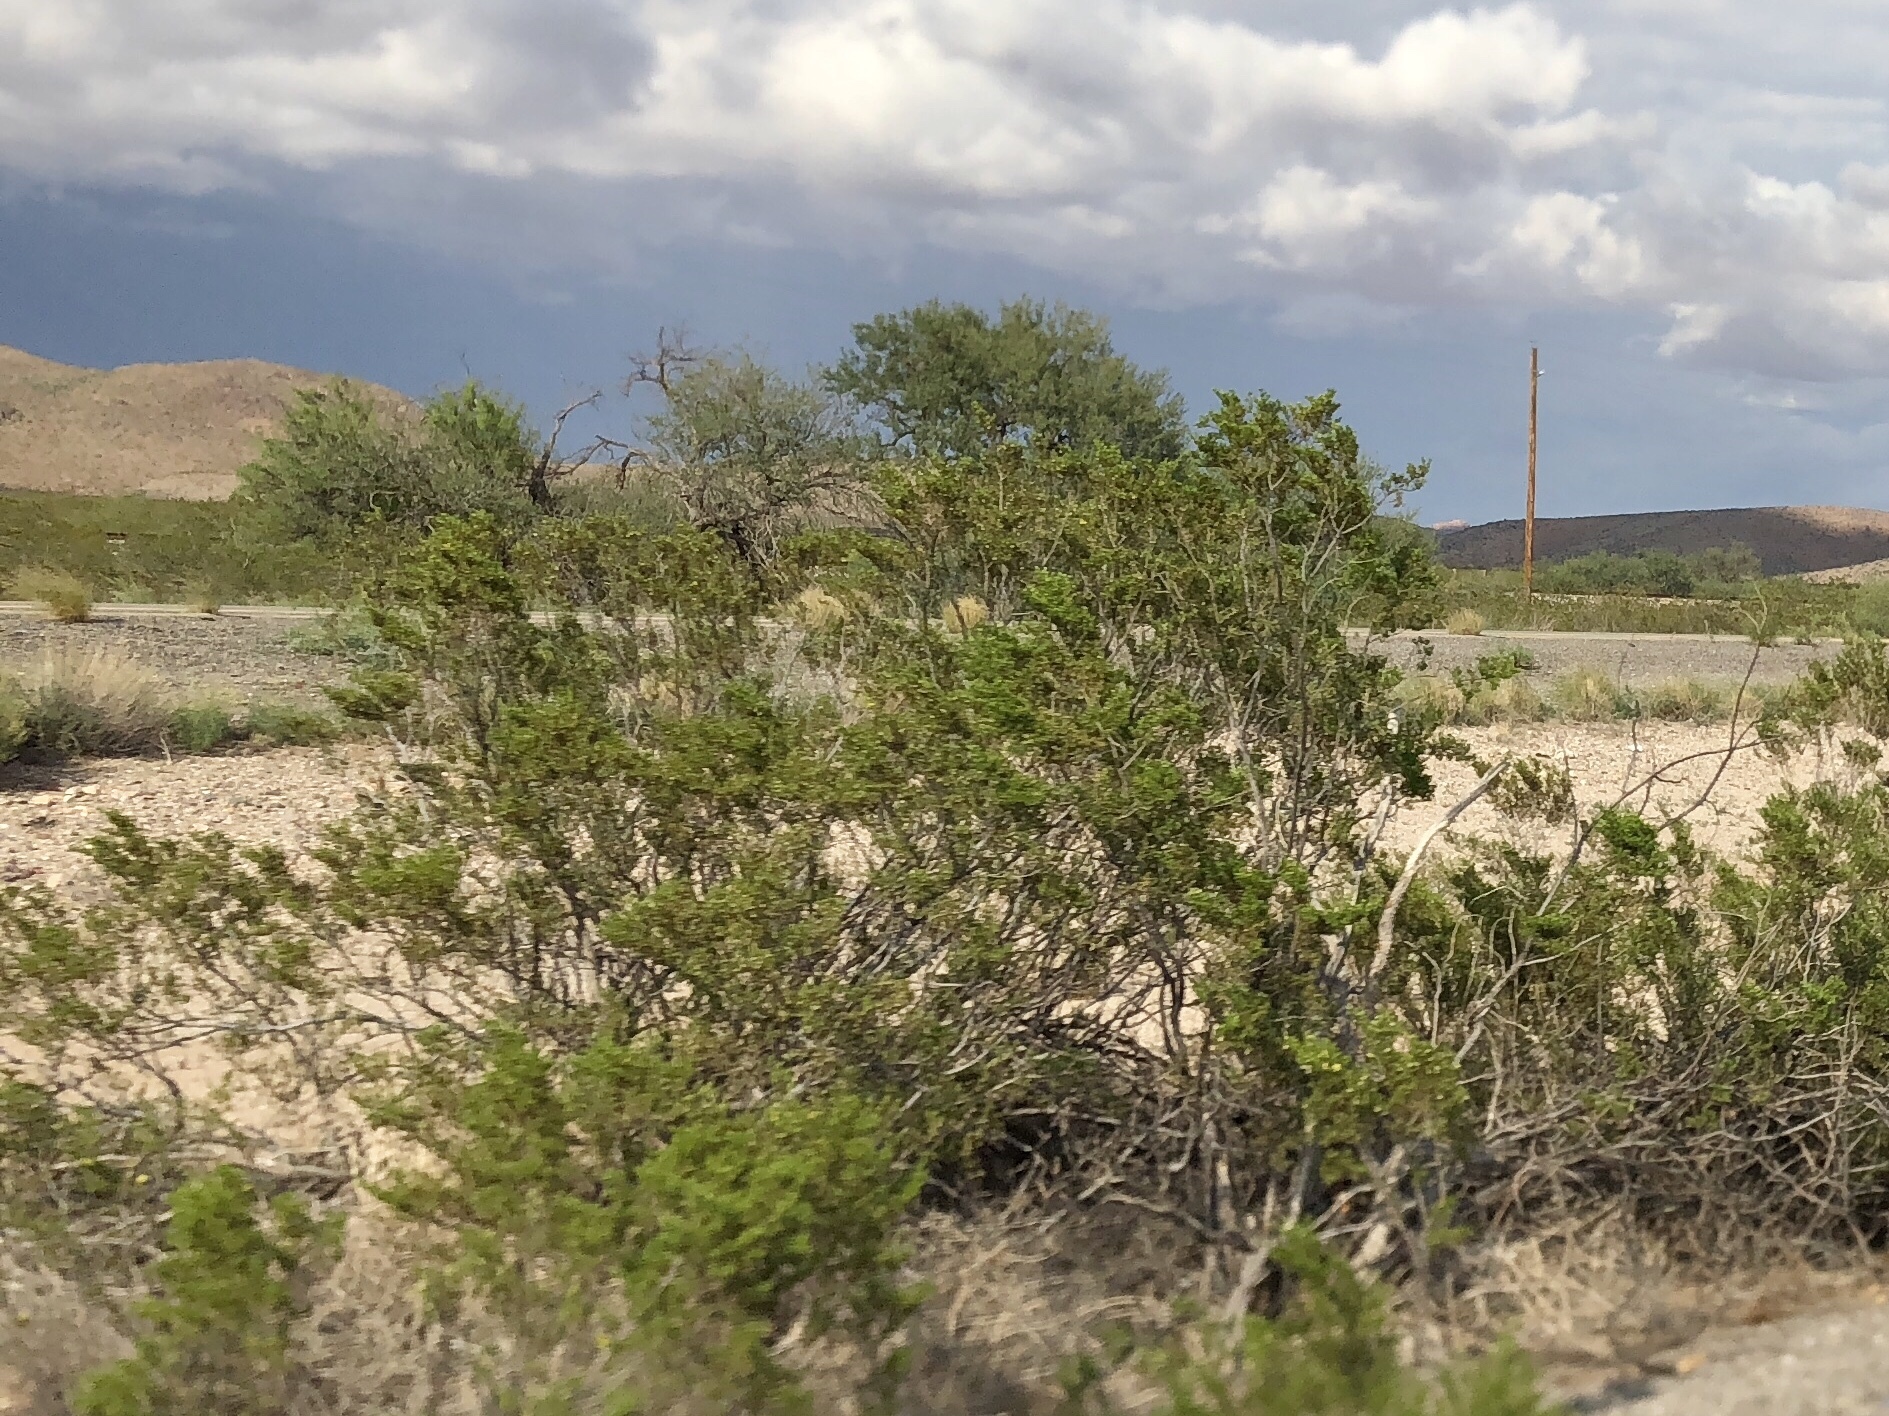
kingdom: Plantae
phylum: Tracheophyta
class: Magnoliopsida
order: Zygophyllales
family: Zygophyllaceae
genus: Larrea
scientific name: Larrea tridentata
